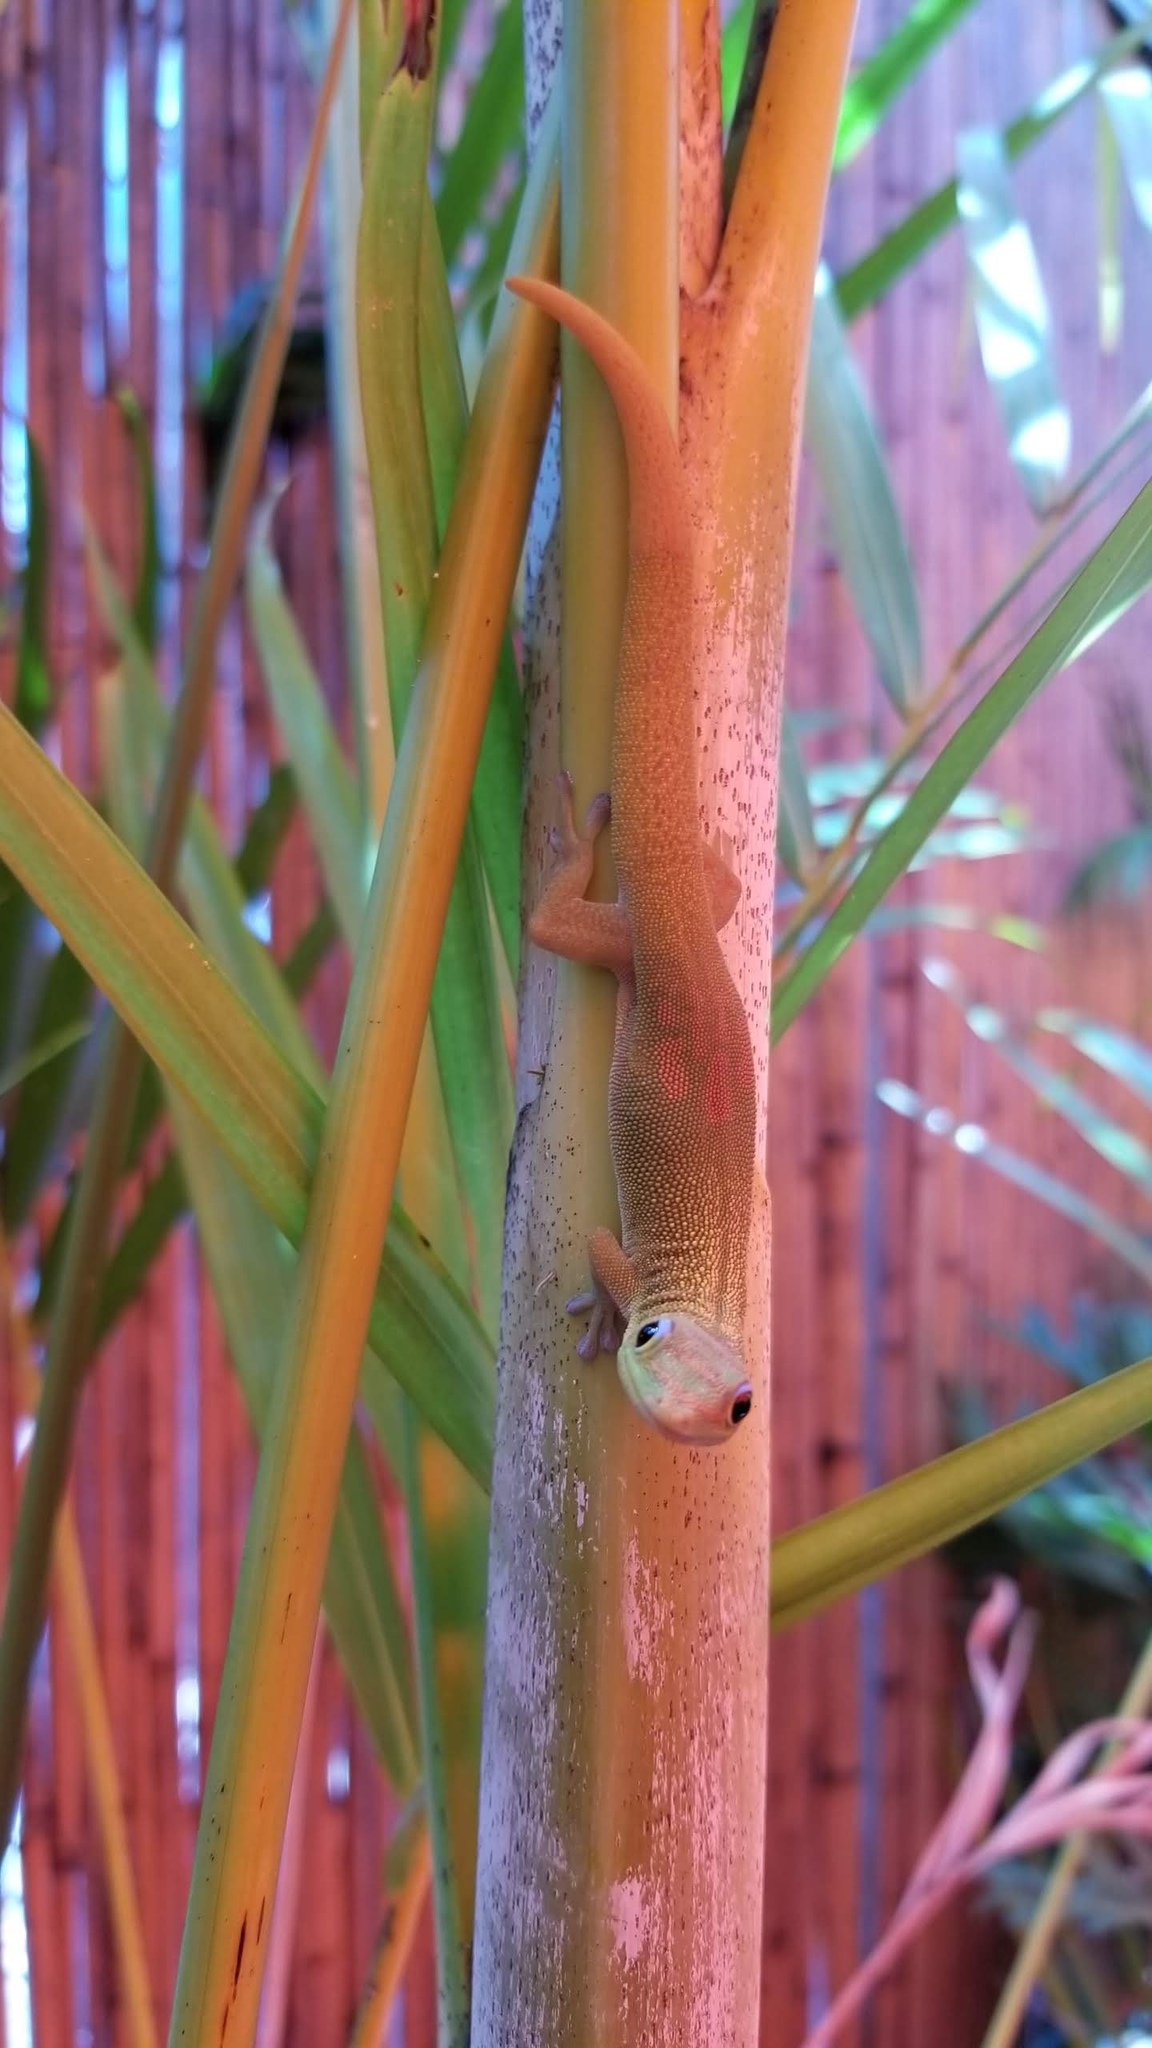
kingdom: Animalia
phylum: Chordata
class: Squamata
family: Gekkonidae
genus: Phelsuma
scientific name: Phelsuma laticauda
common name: Gold dust day gecko
